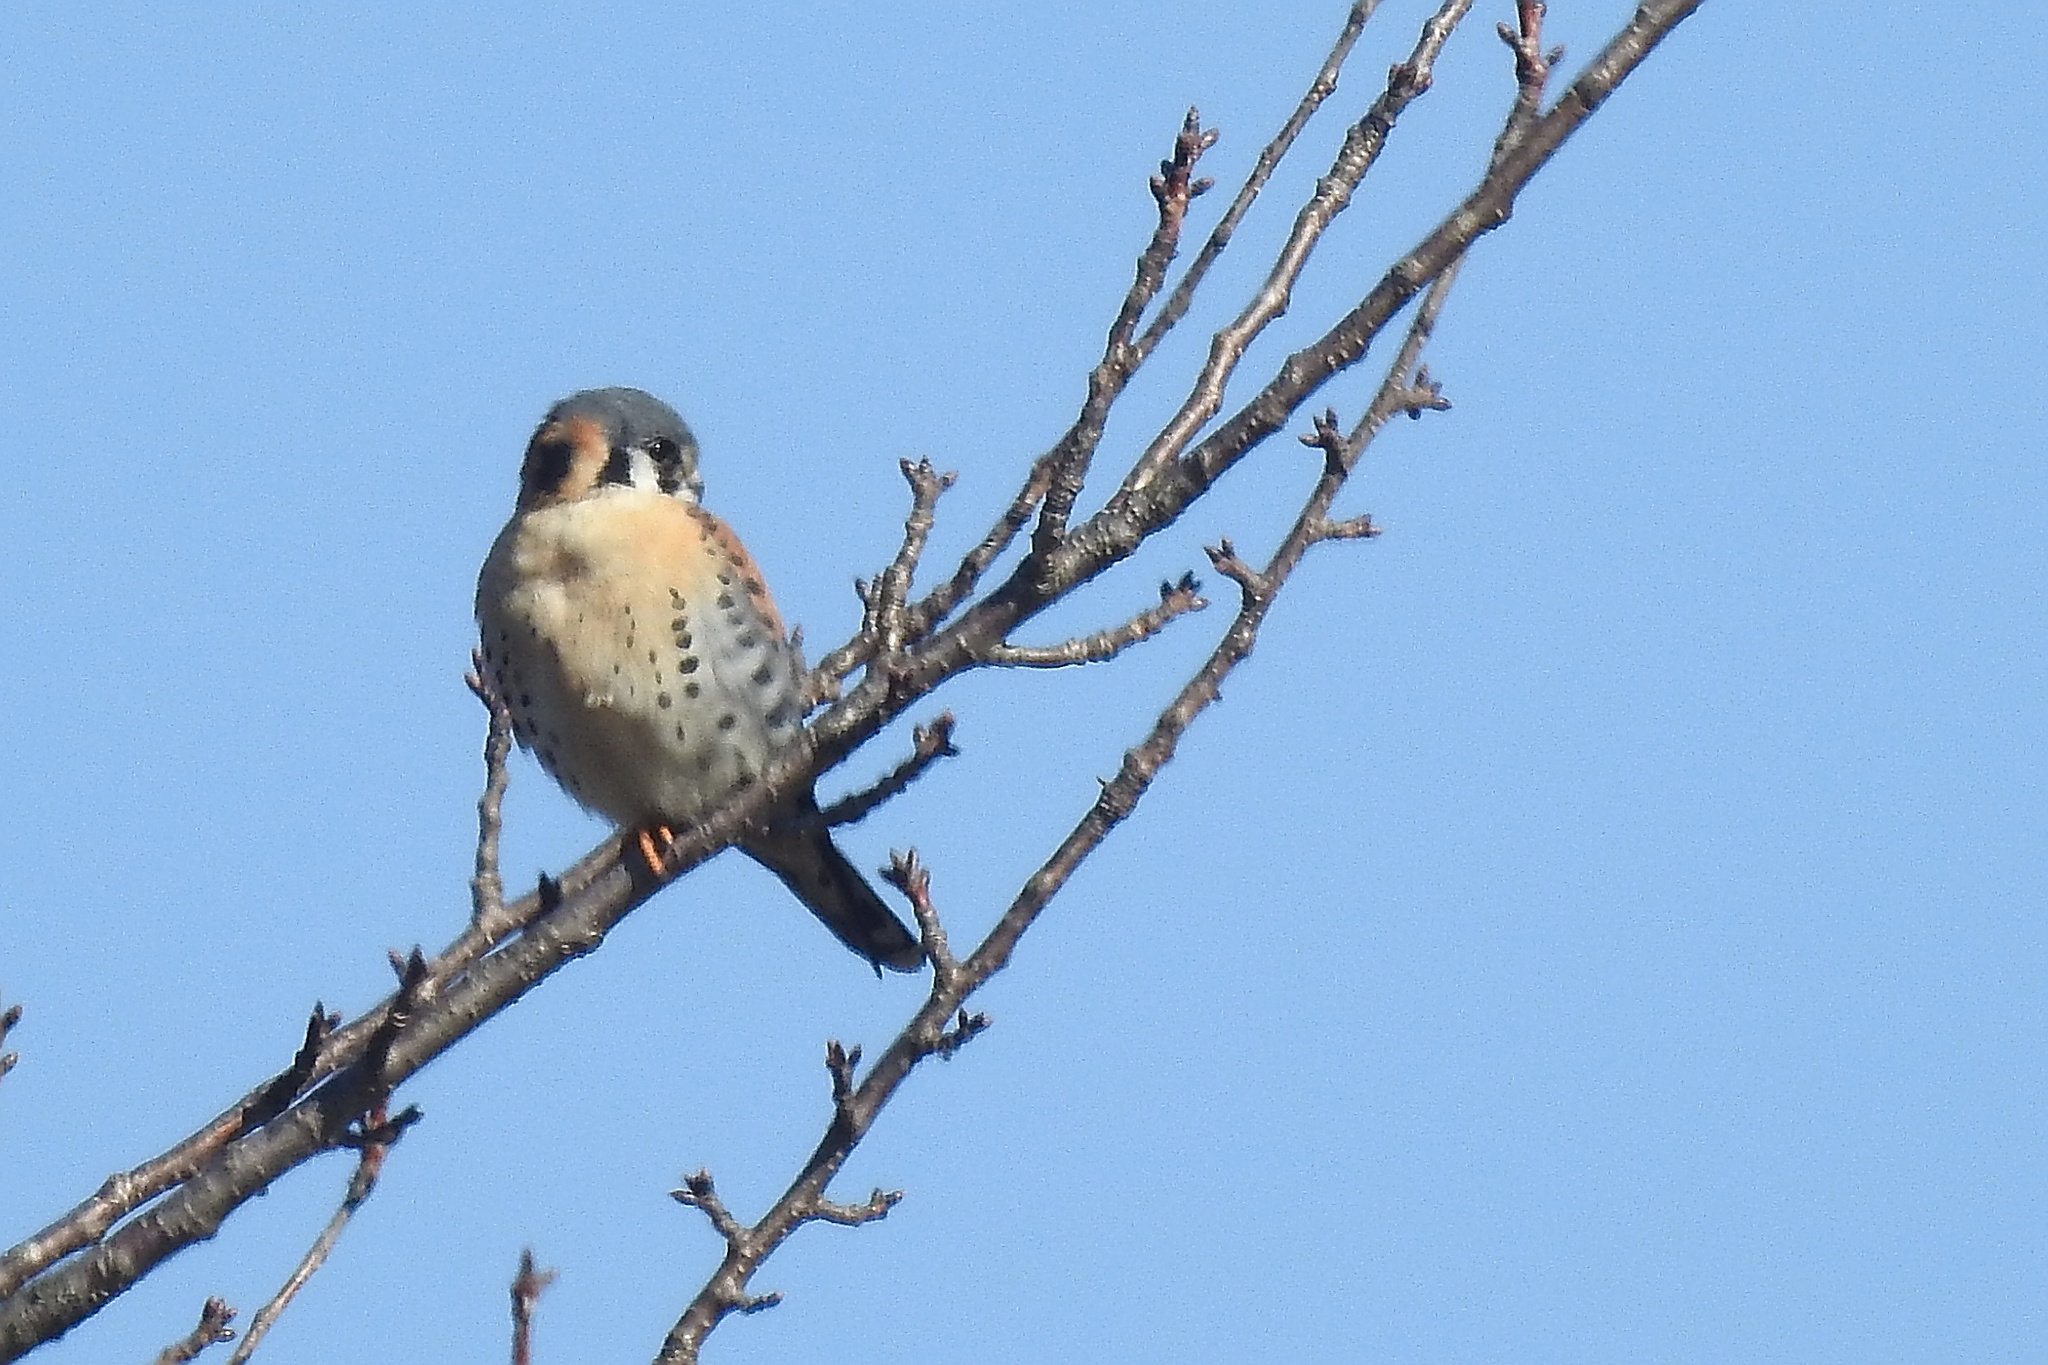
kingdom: Animalia
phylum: Chordata
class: Aves
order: Falconiformes
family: Falconidae
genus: Falco
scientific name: Falco sparverius
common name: American kestrel
